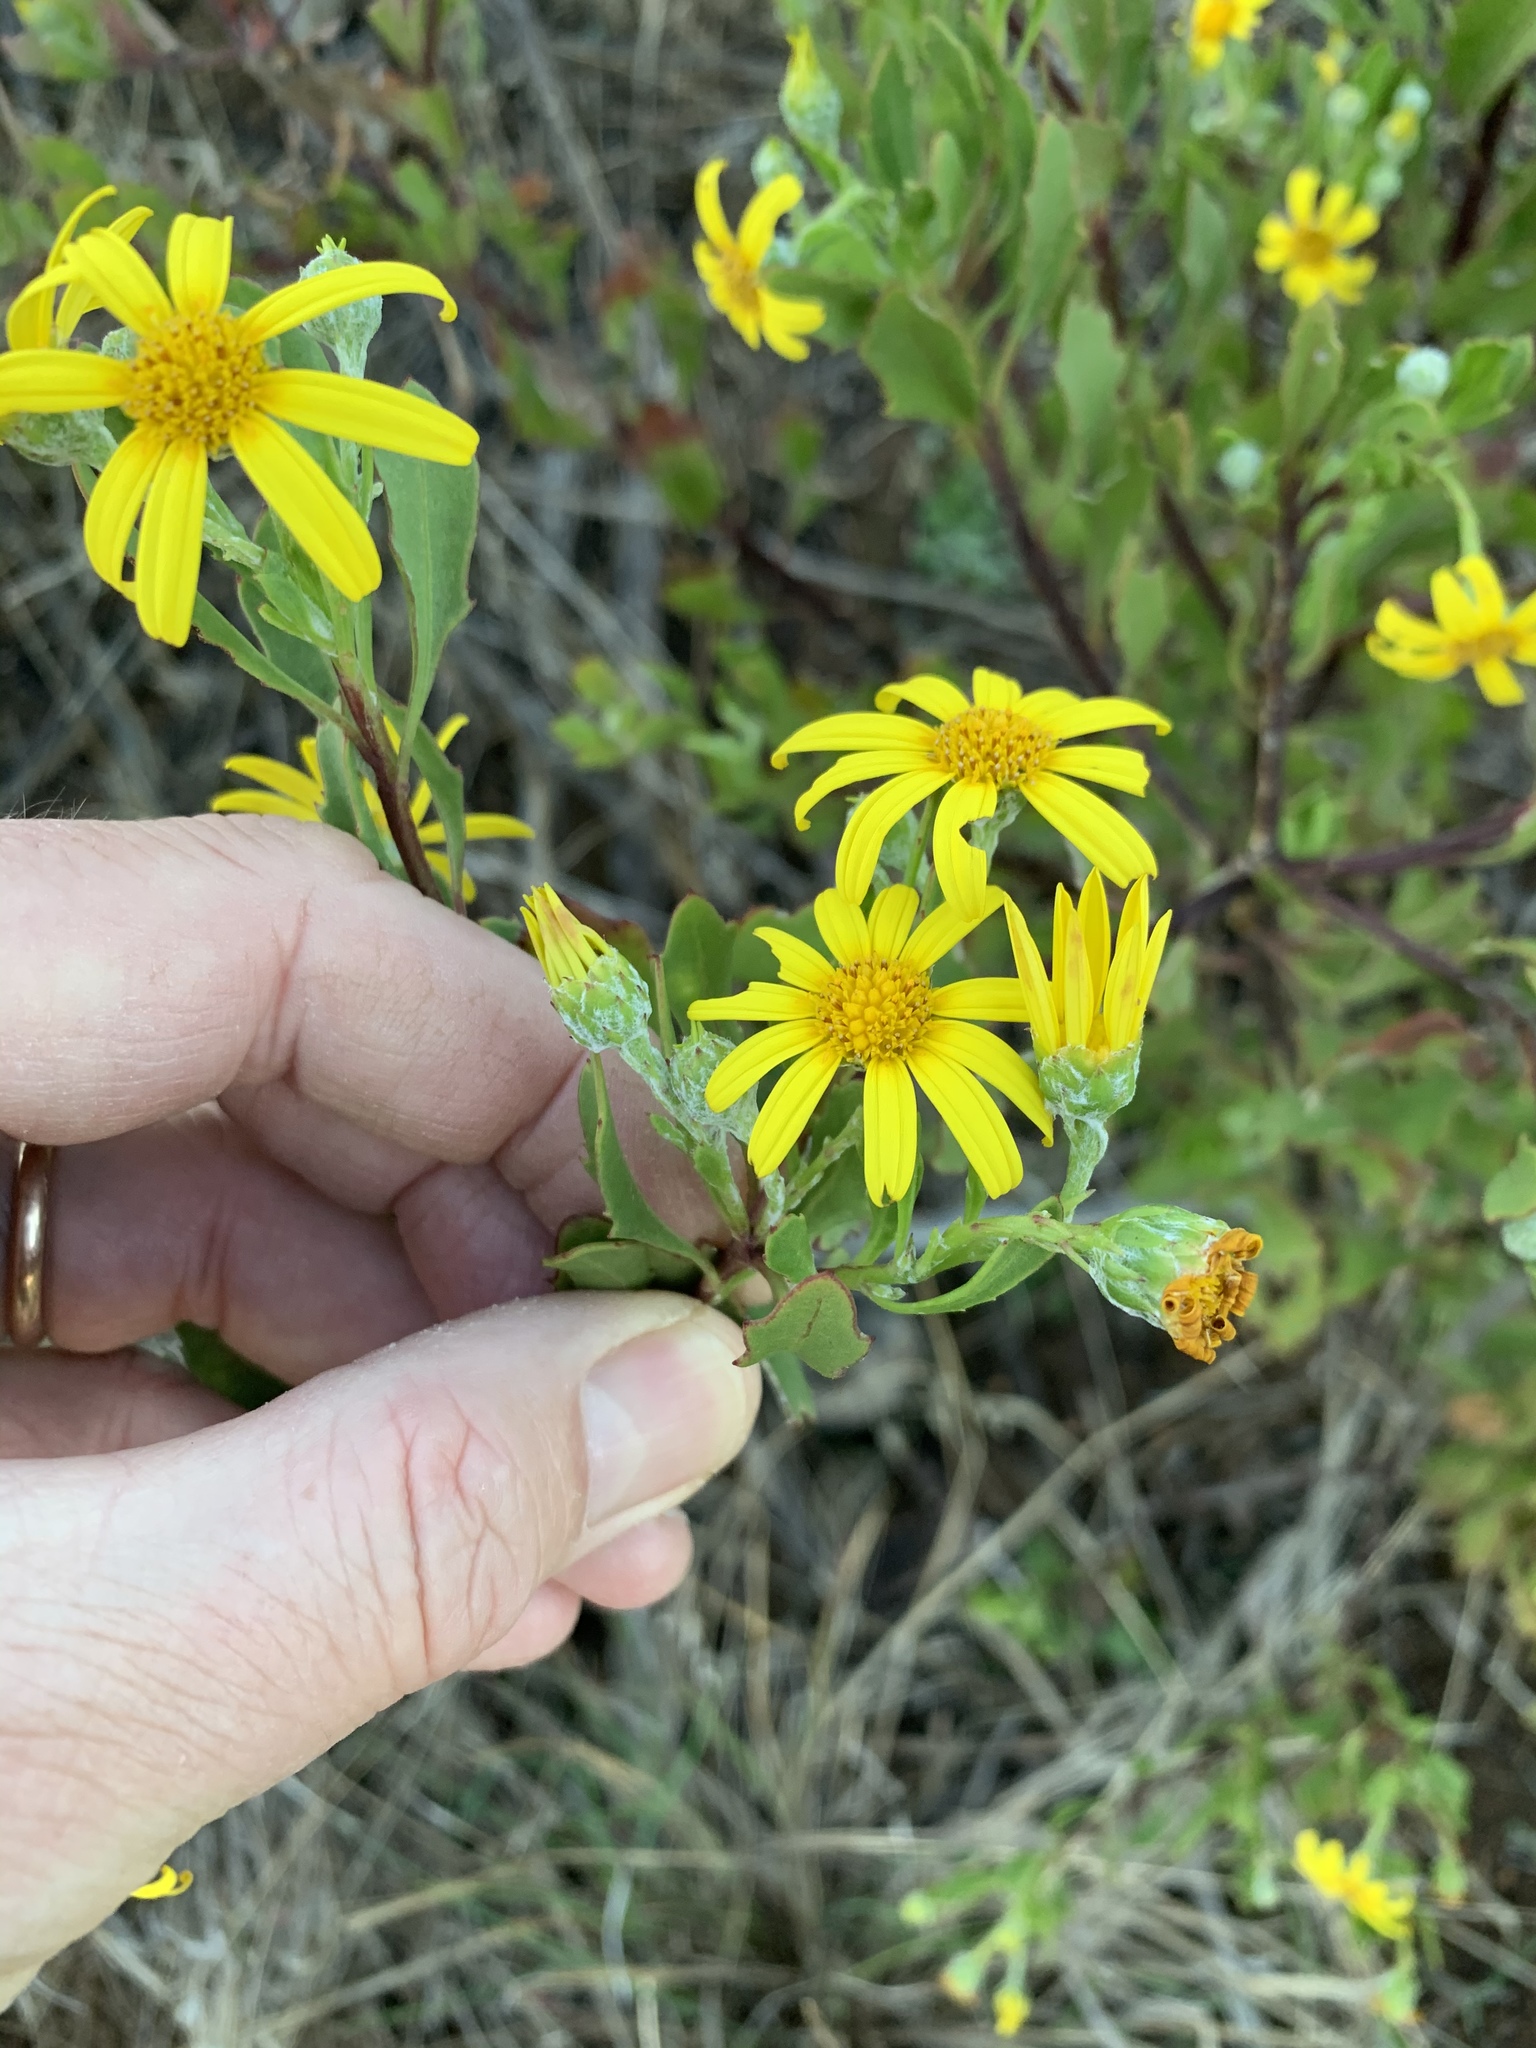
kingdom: Plantae
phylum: Tracheophyta
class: Magnoliopsida
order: Asterales
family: Asteraceae
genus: Osteospermum
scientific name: Osteospermum moniliferum
